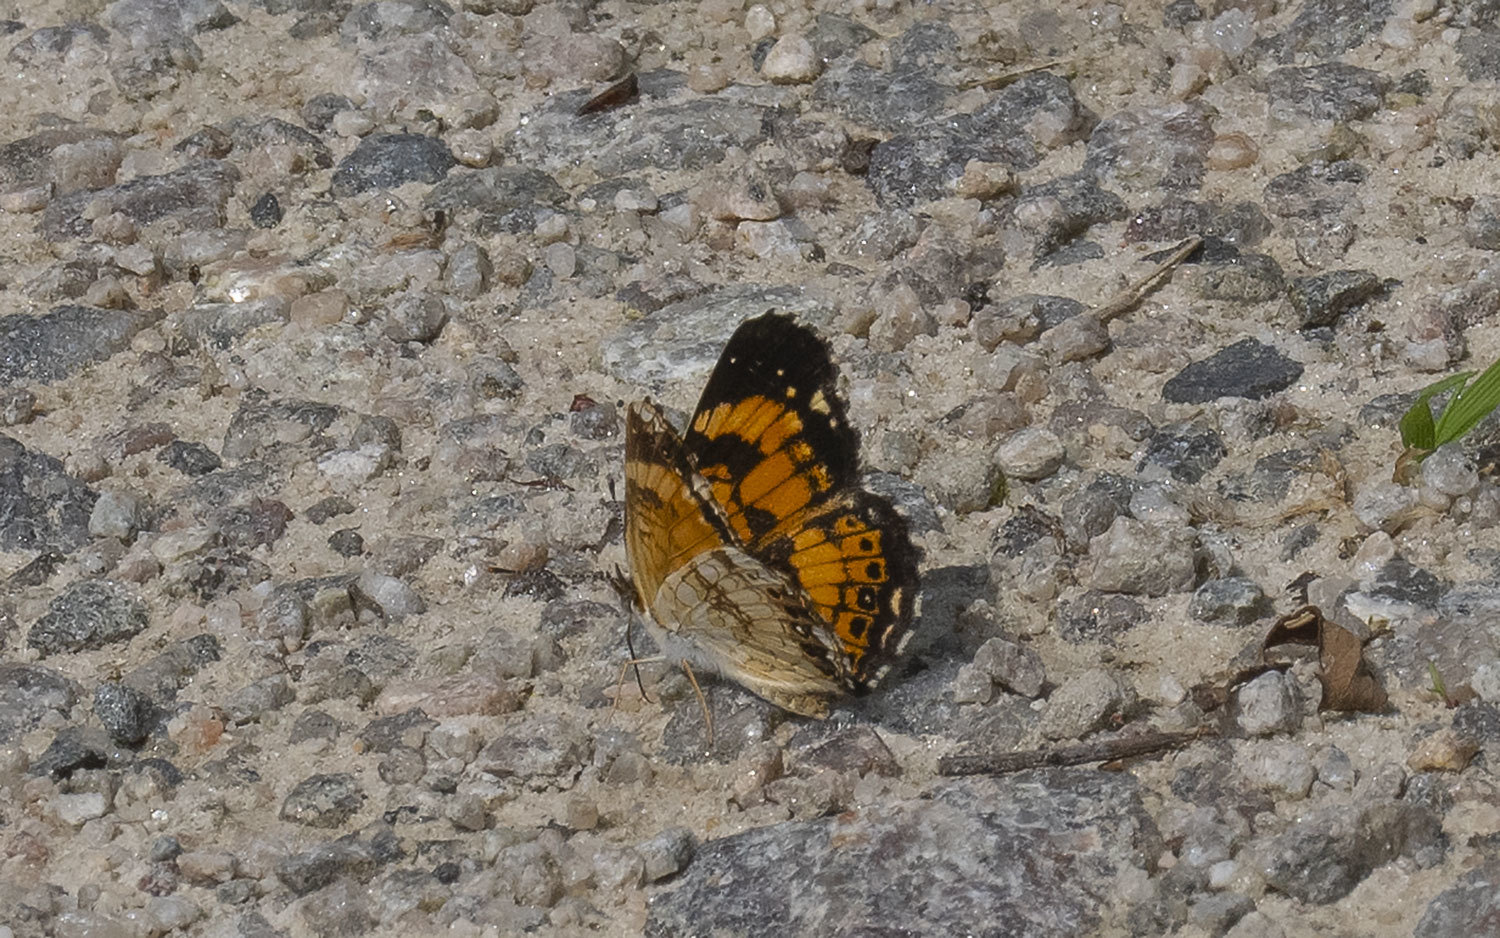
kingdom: Animalia
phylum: Arthropoda
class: Insecta
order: Lepidoptera
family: Nymphalidae
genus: Chlosyne
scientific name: Chlosyne nycteis
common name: Silvery checkerspot
